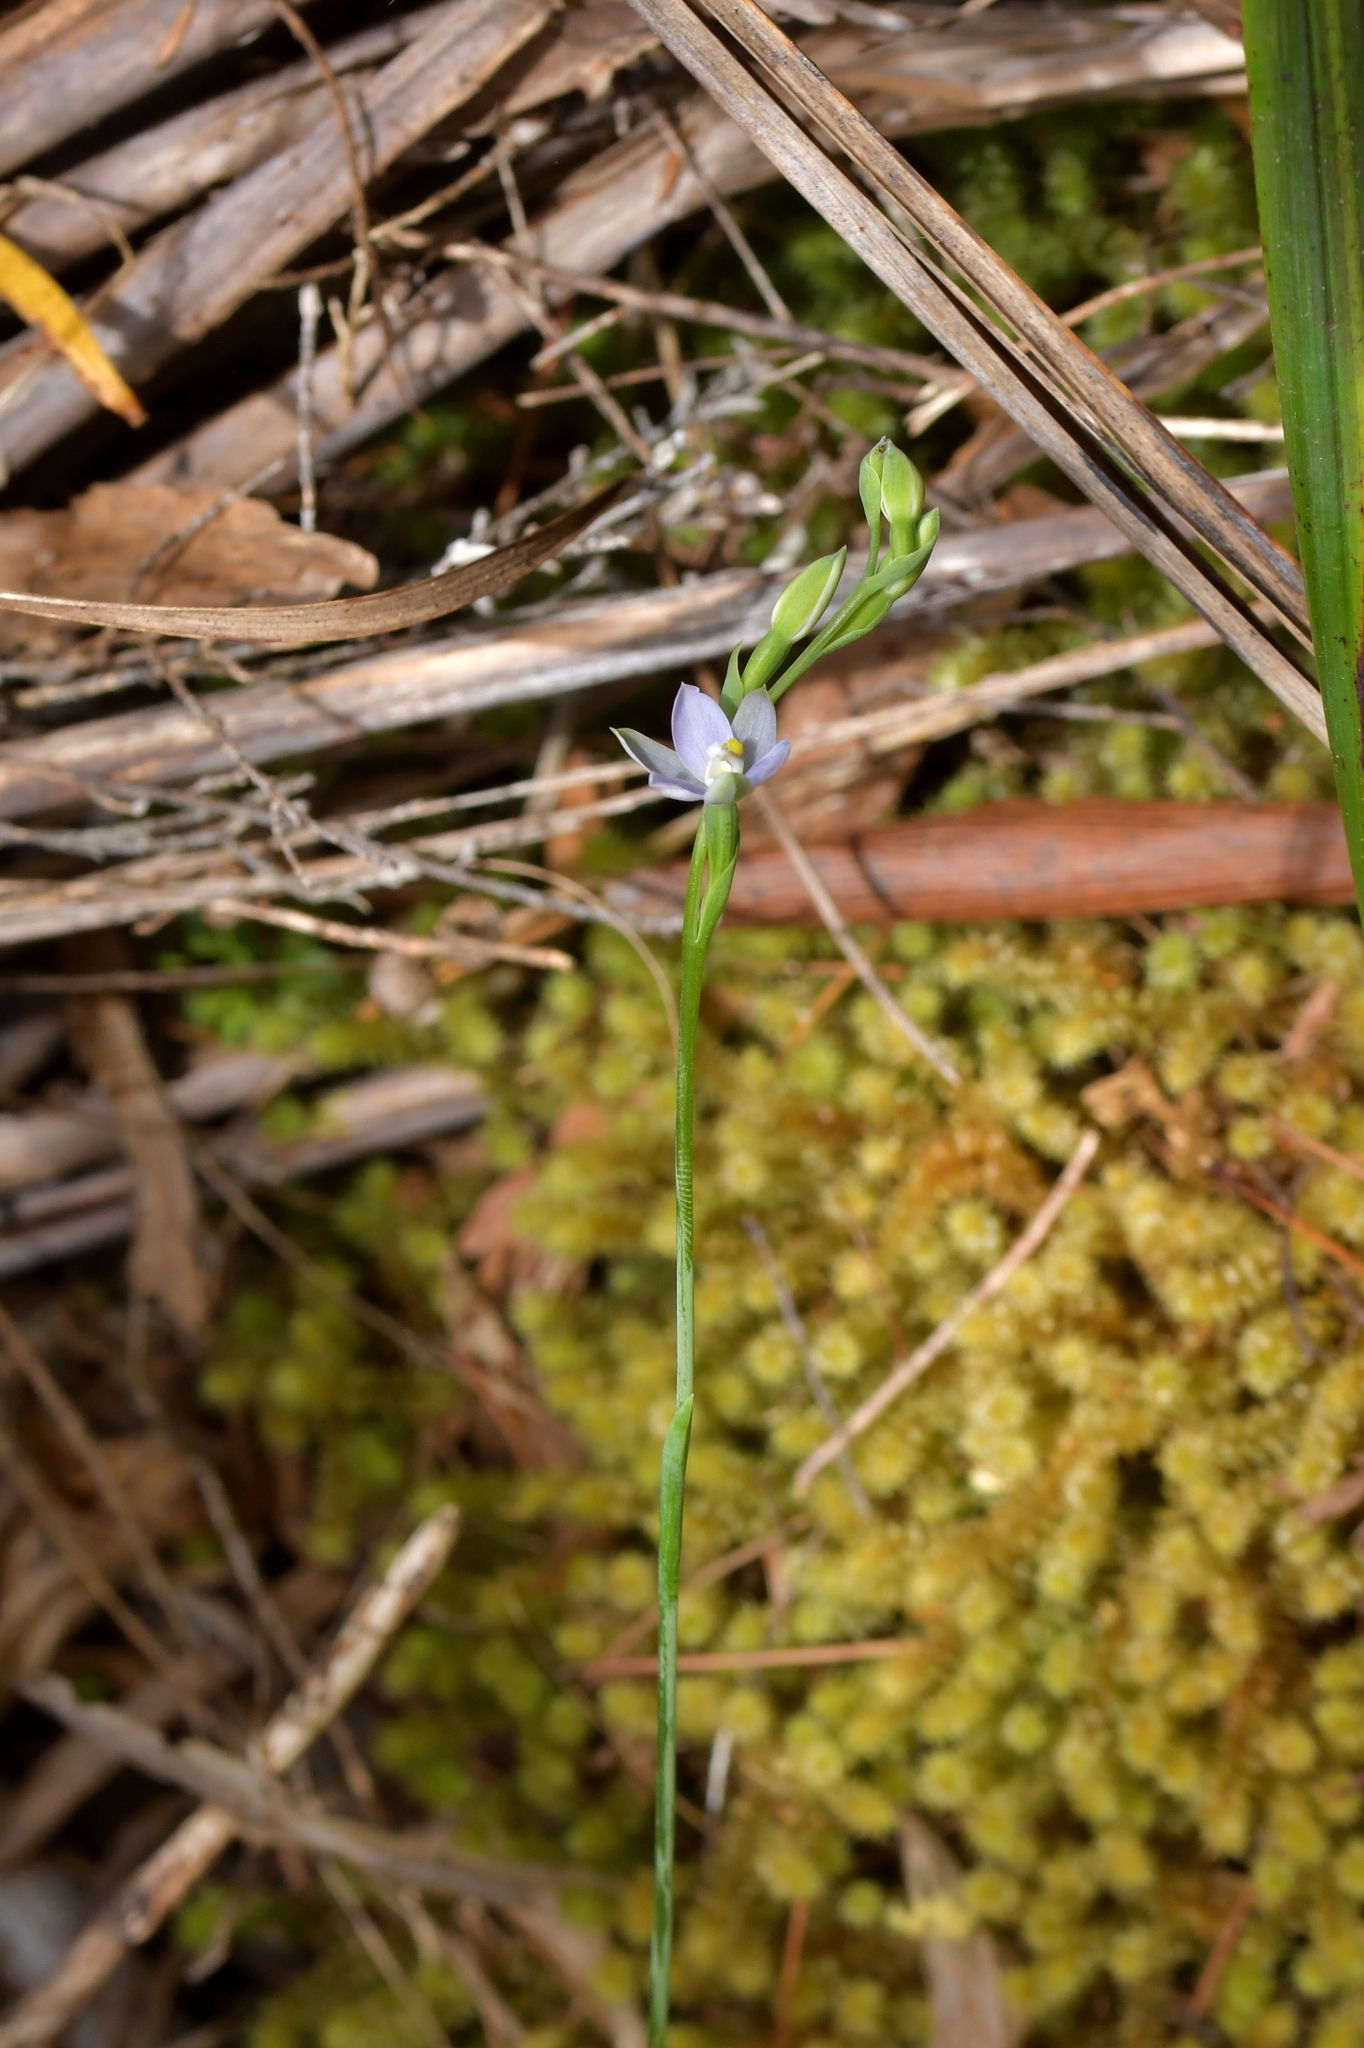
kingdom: Plantae
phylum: Tracheophyta
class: Liliopsida
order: Asparagales
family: Orchidaceae
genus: Thelymitra
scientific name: Thelymitra tholiformis
